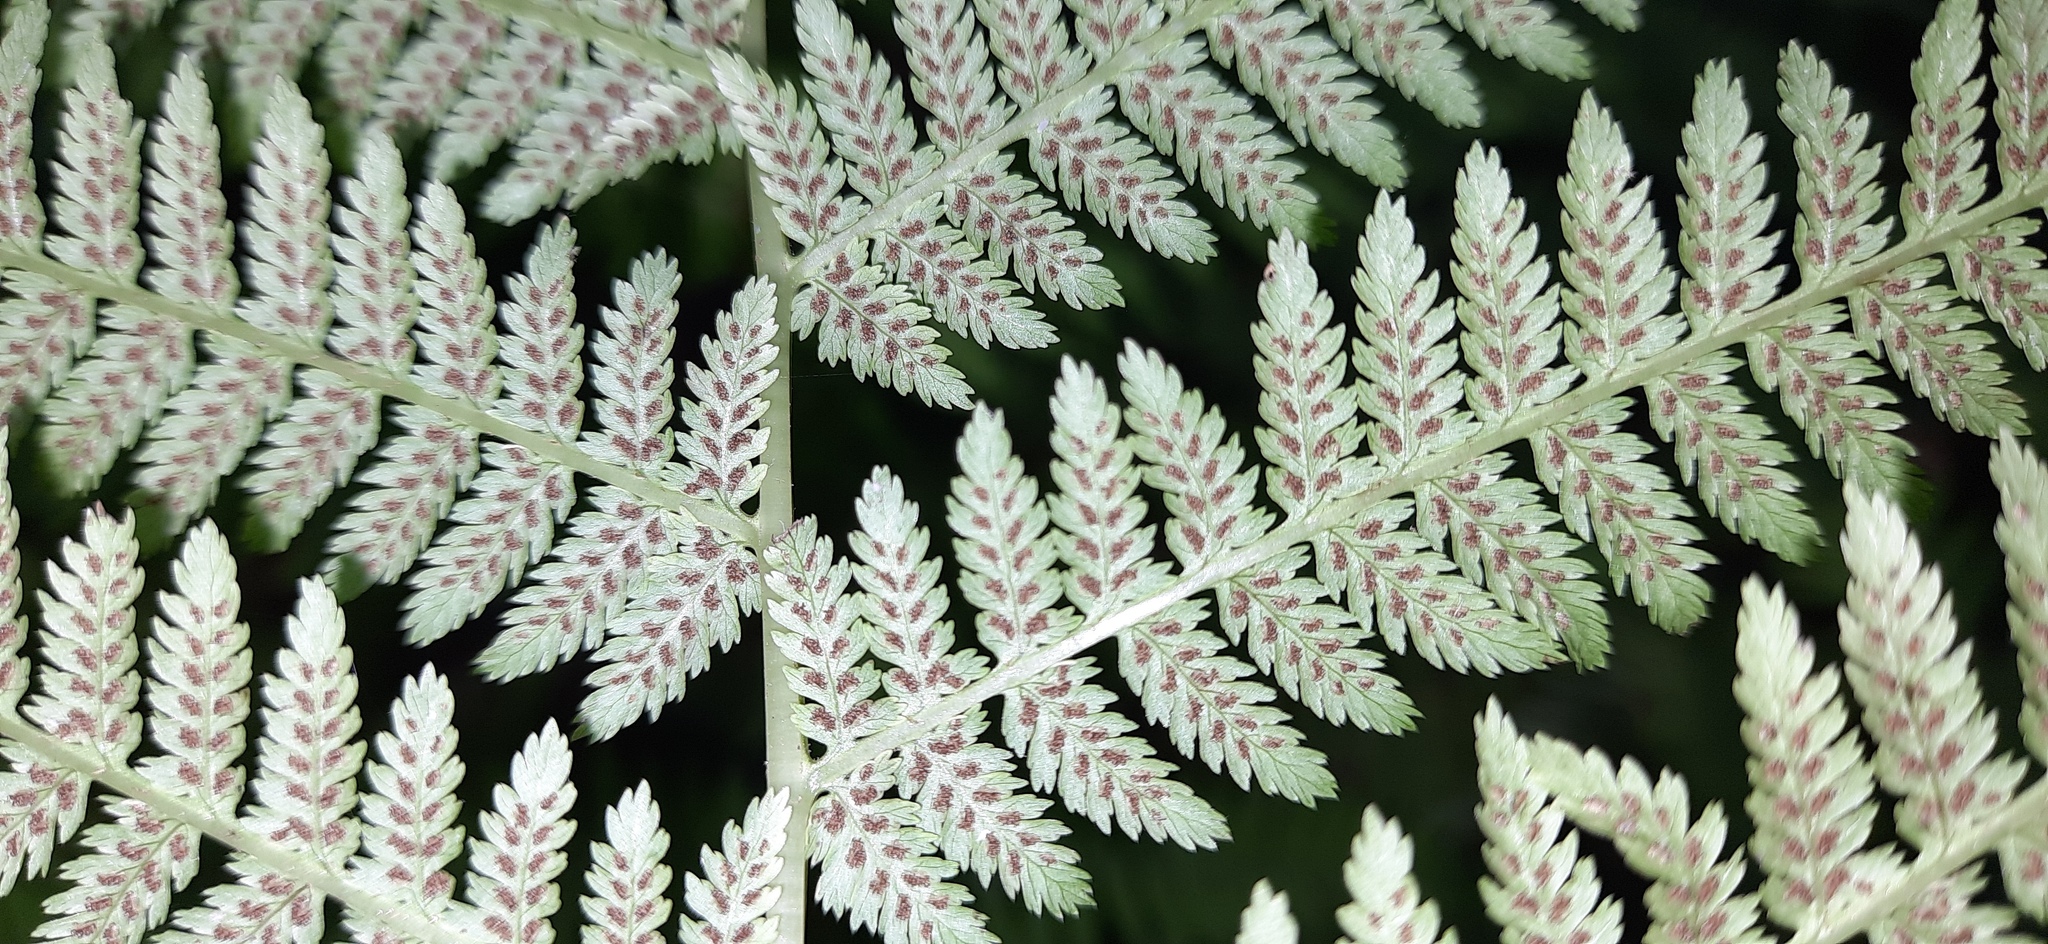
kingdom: Plantae
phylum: Tracheophyta
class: Polypodiopsida
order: Polypodiales
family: Athyriaceae
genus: Athyrium
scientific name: Athyrium filix-femina
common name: Lady fern
